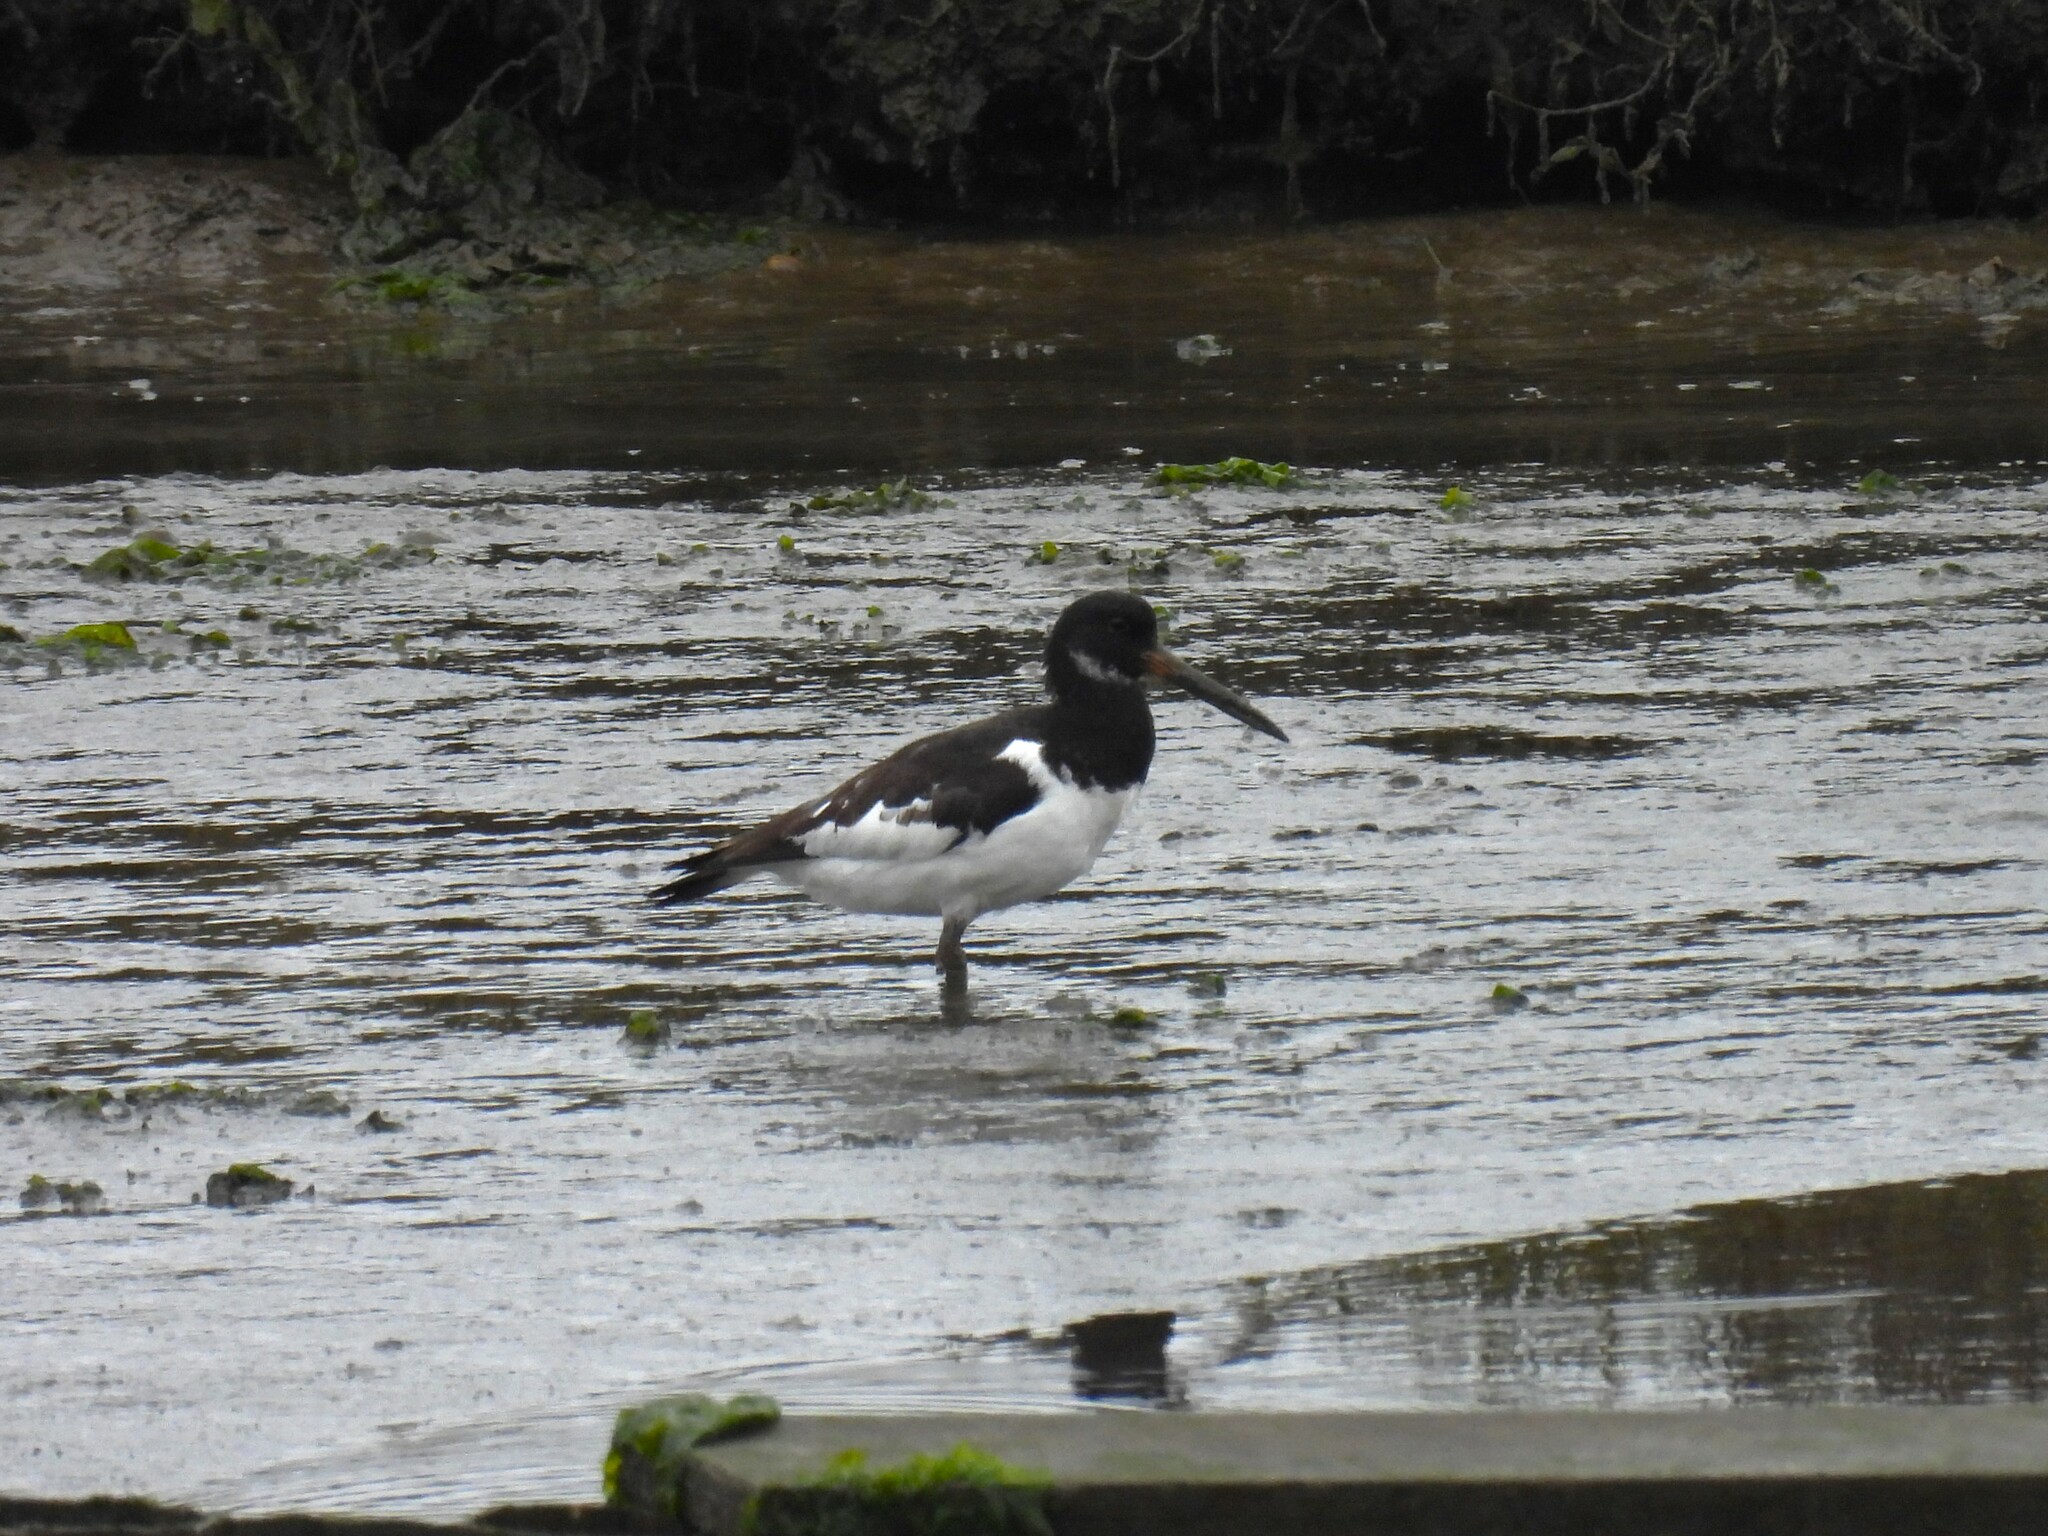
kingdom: Animalia
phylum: Chordata
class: Aves
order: Charadriiformes
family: Haematopodidae
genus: Haematopus
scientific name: Haematopus ostralegus
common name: Eurasian oystercatcher
